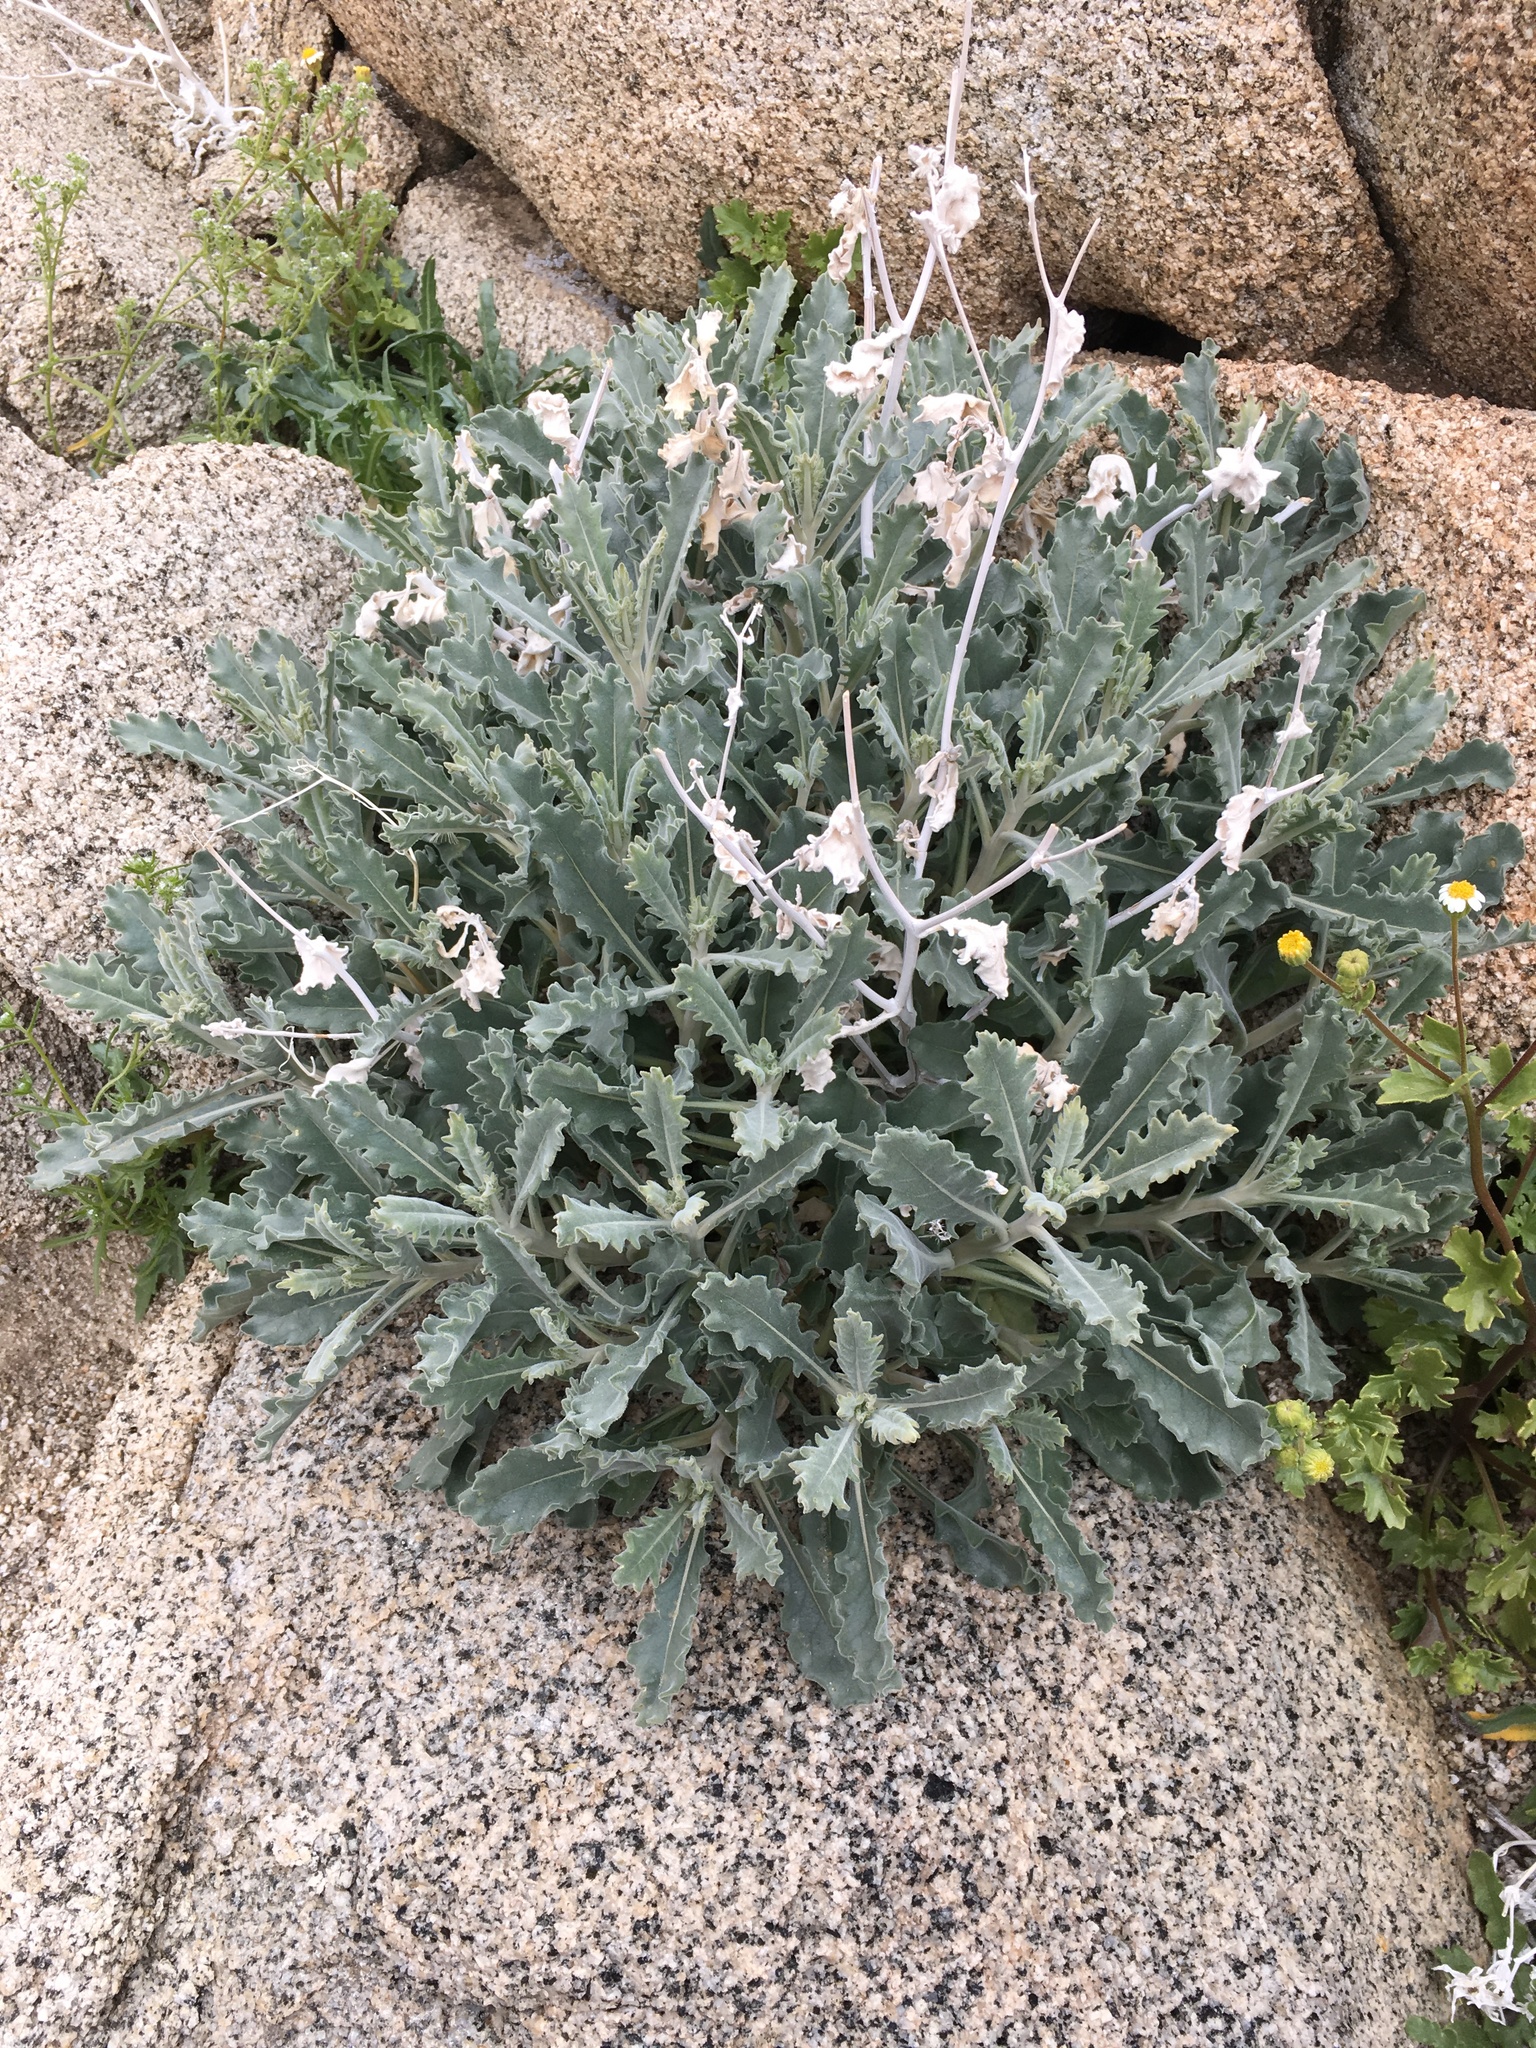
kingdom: Plantae
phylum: Tracheophyta
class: Magnoliopsida
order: Cornales
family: Loasaceae
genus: Mentzelia
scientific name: Mentzelia puberula
